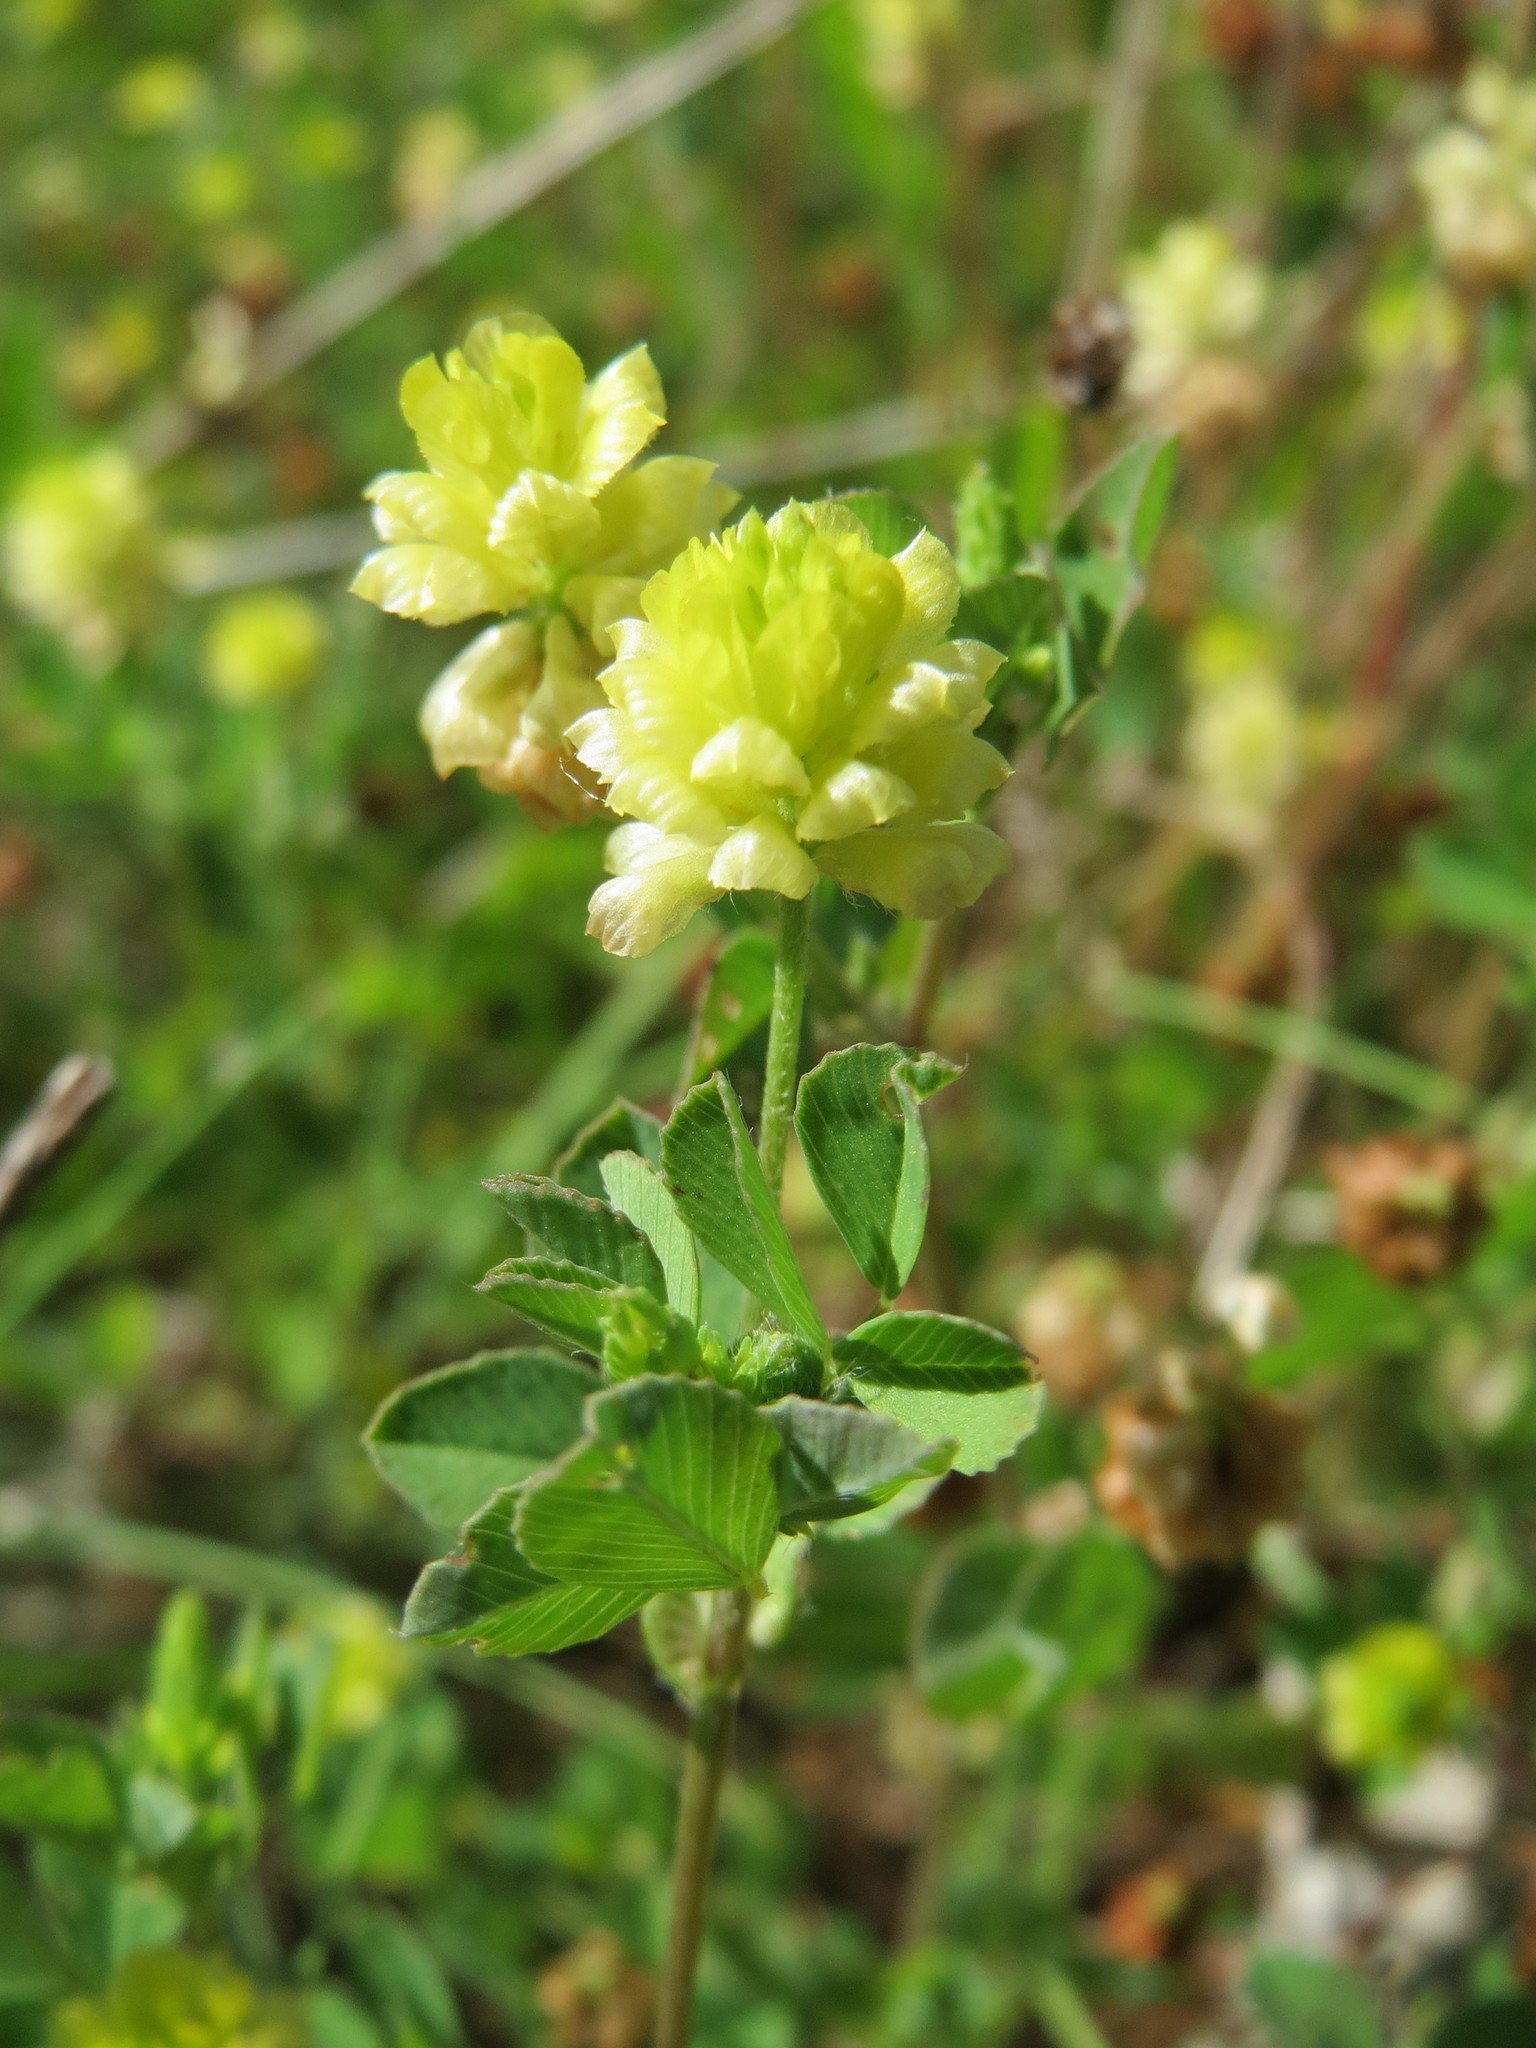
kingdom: Plantae
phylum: Tracheophyta
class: Magnoliopsida
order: Fabales
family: Fabaceae
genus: Trifolium
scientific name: Trifolium campestre
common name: Field clover
